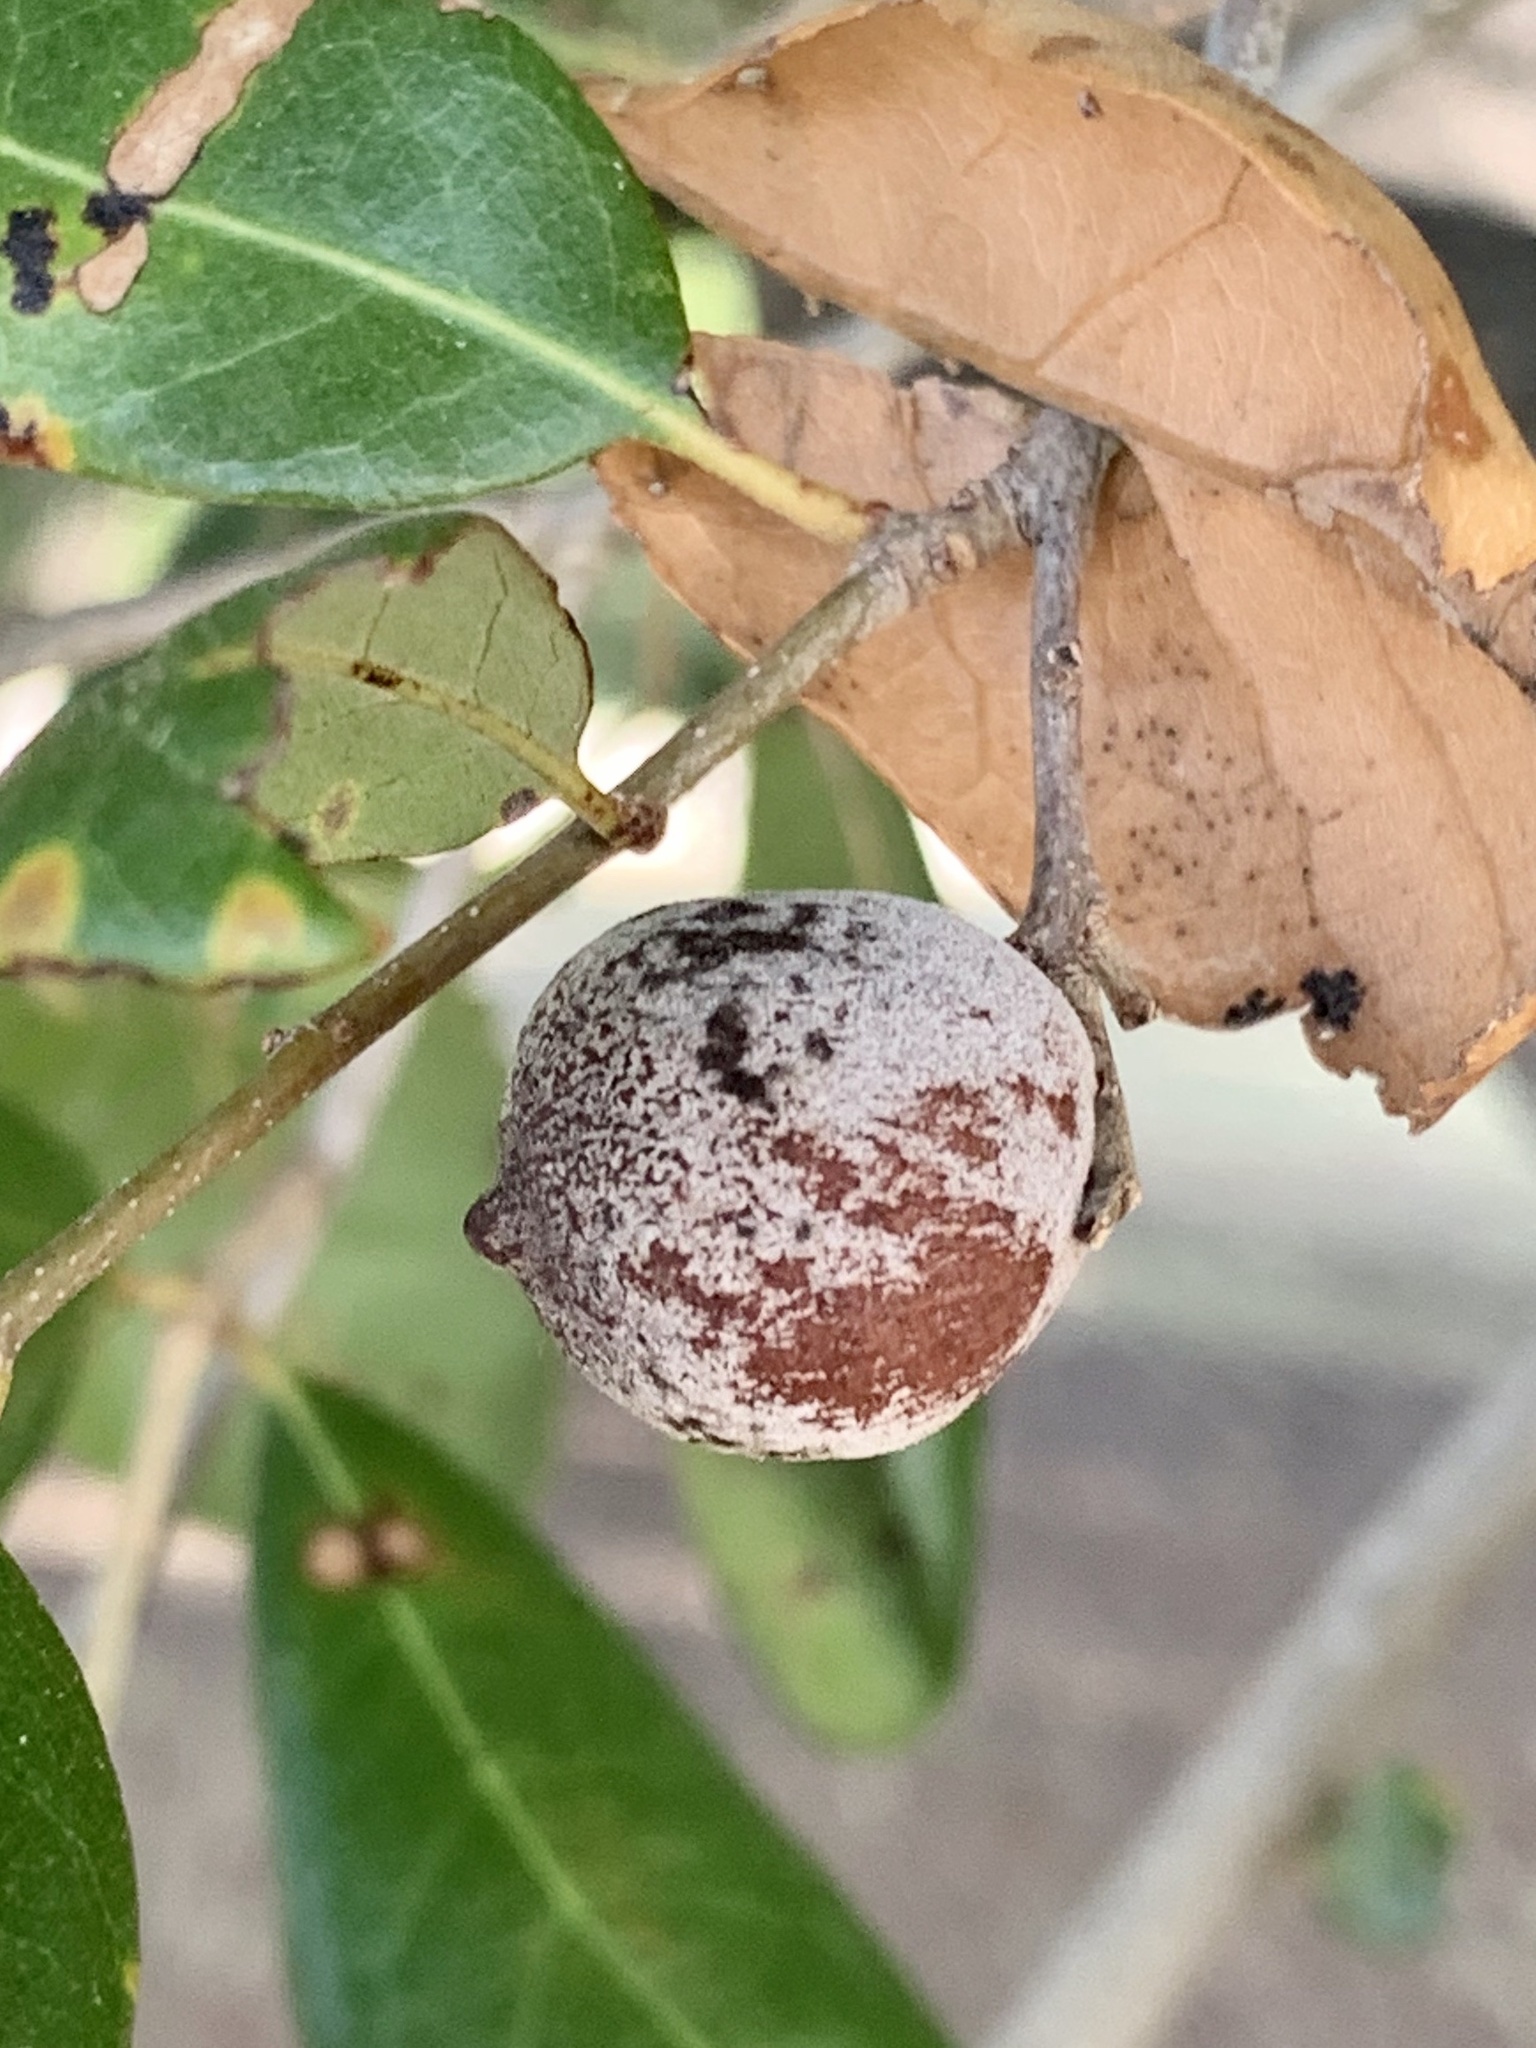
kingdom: Animalia
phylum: Arthropoda
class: Insecta
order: Hymenoptera
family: Cynipidae
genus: Disholcaspis
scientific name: Disholcaspis
